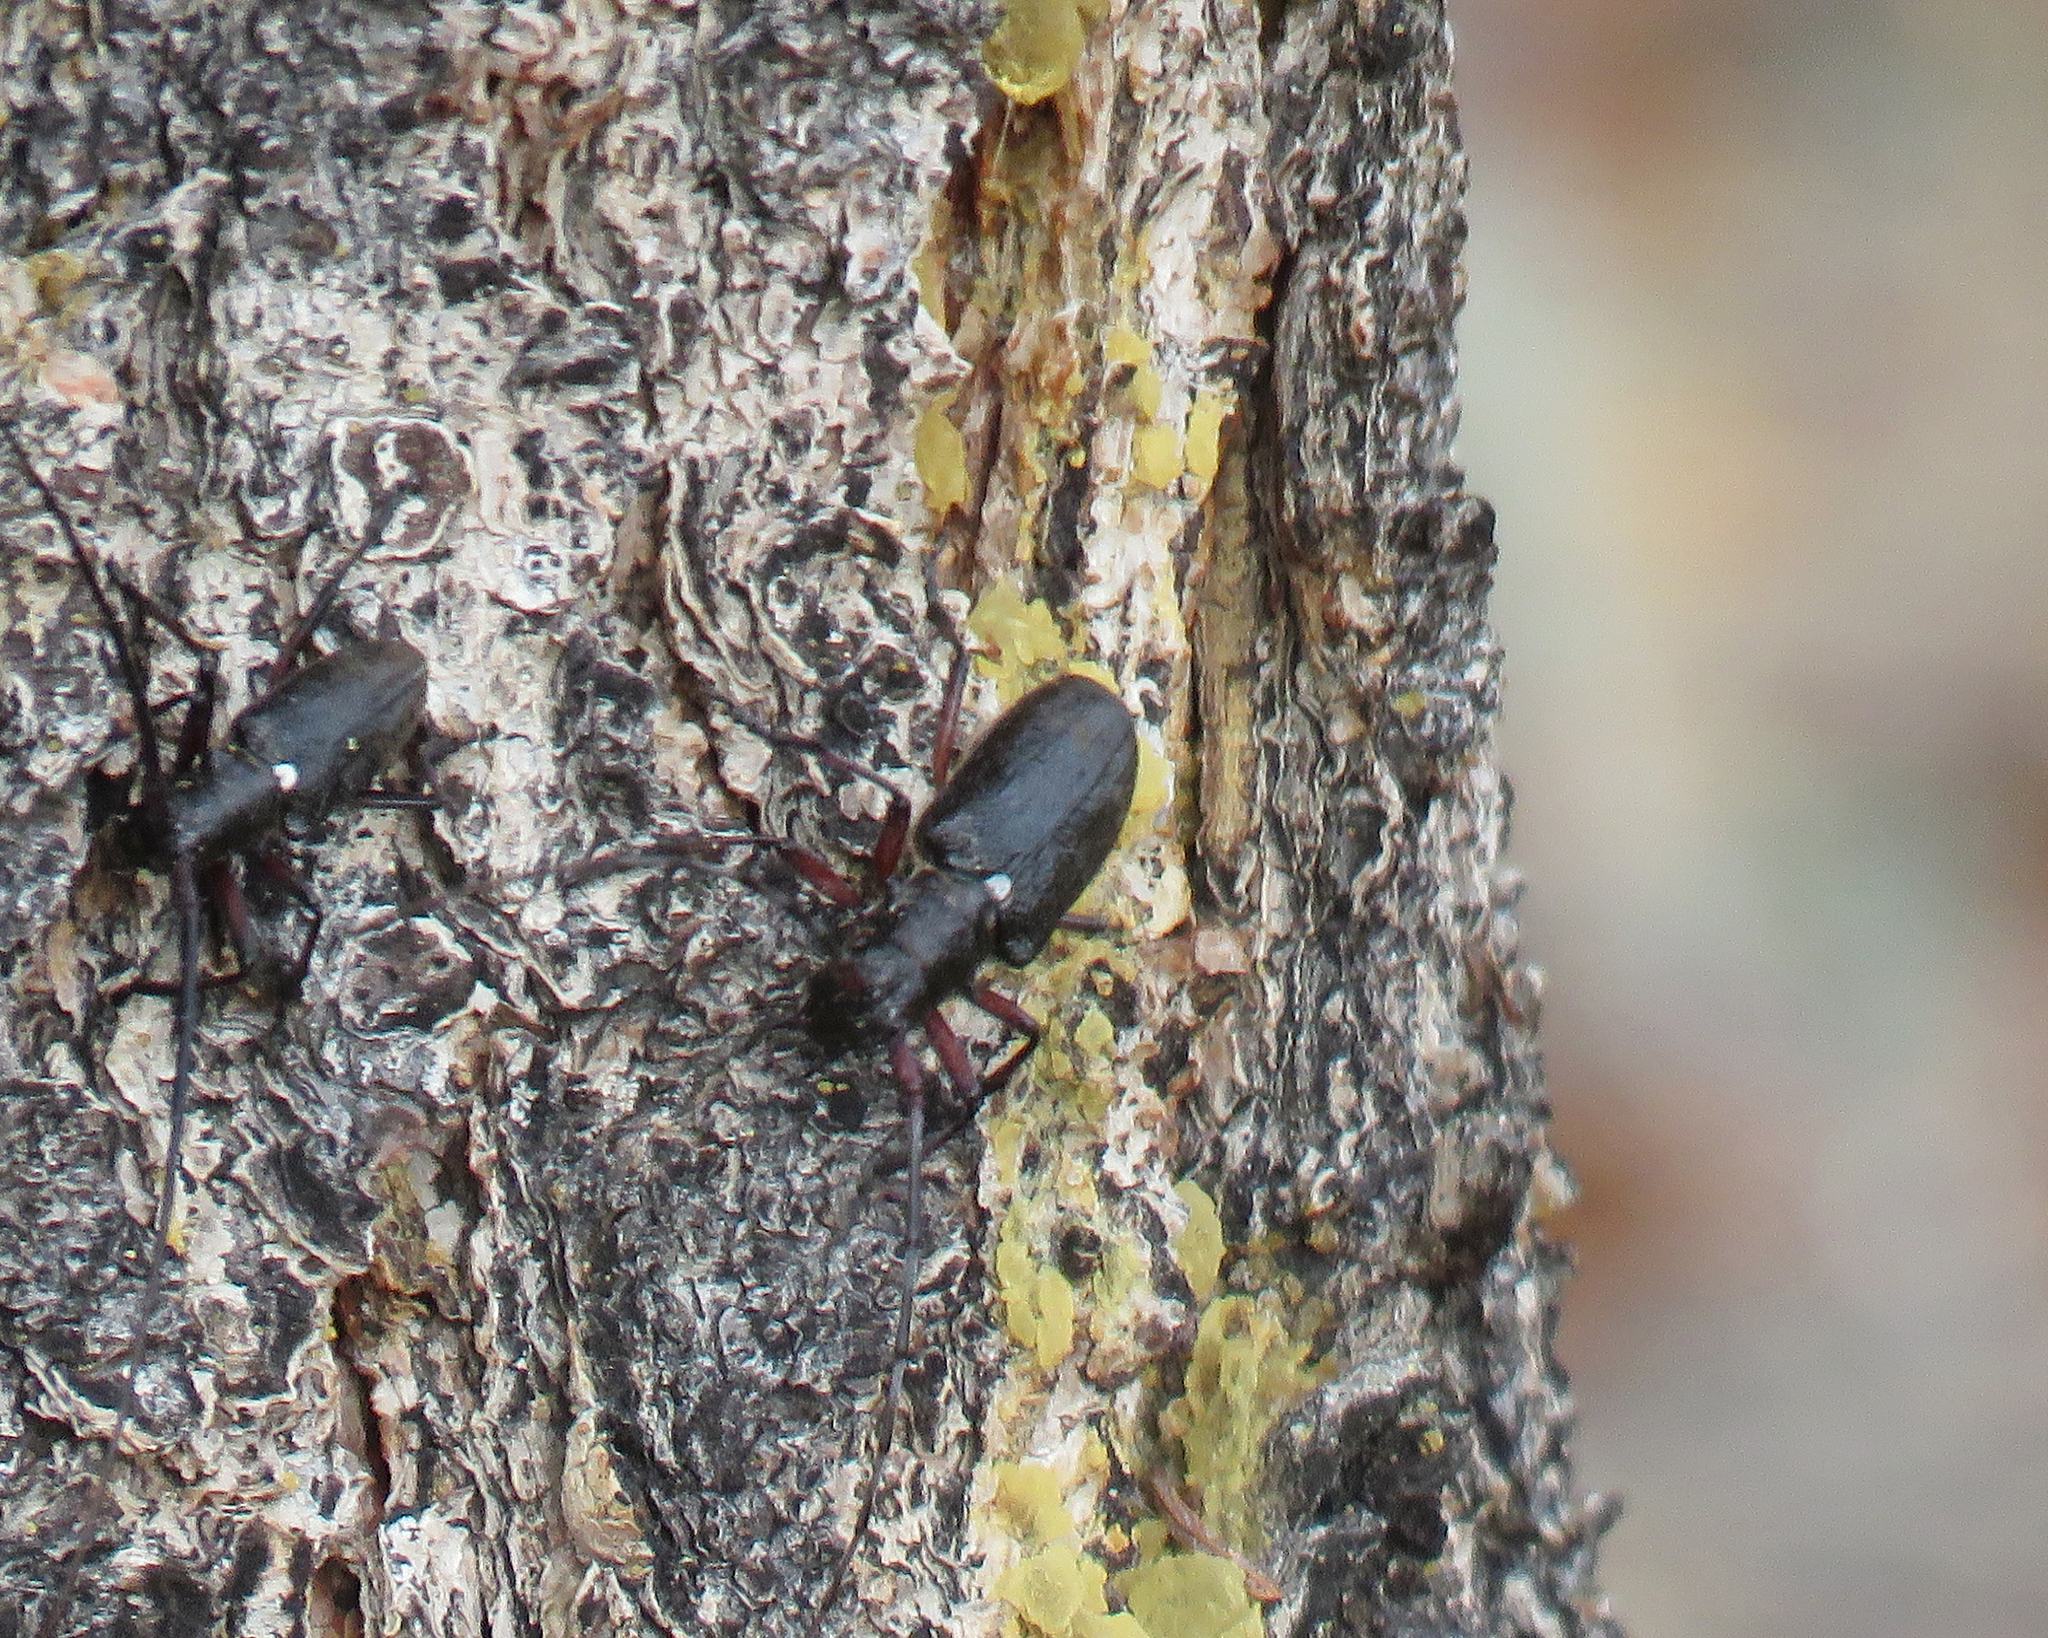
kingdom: Animalia
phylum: Arthropoda
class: Insecta
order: Coleoptera
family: Cerambycidae
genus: Monochamus
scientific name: Monochamus scutellatus
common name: White-spotted sawyer beetle
